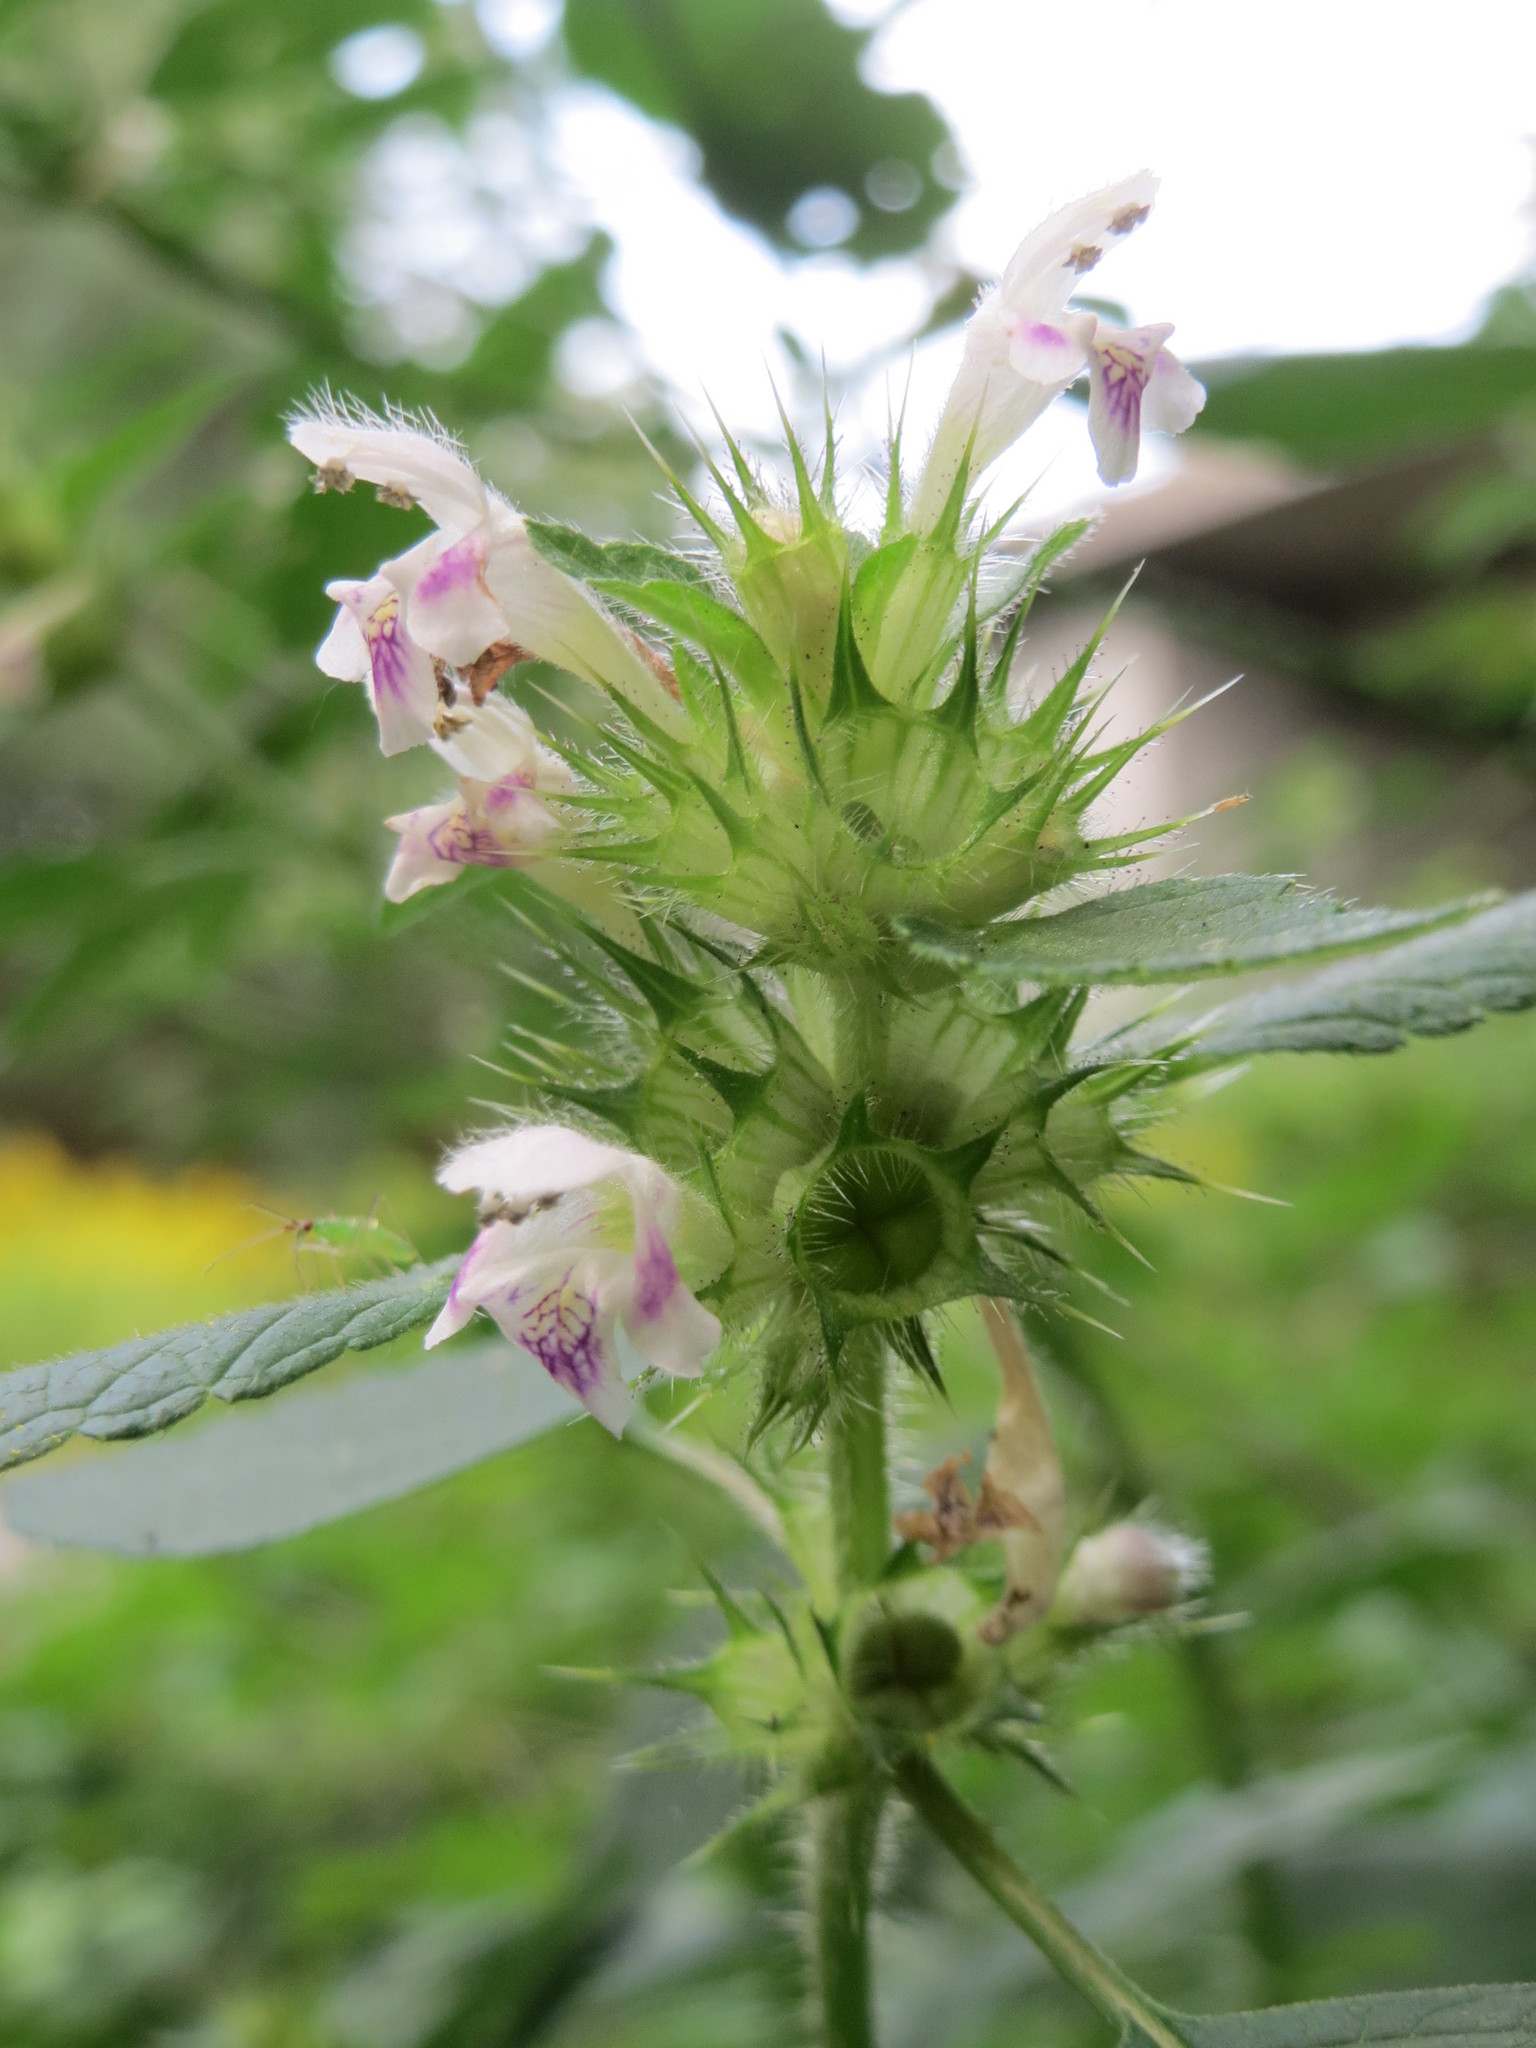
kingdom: Plantae
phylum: Tracheophyta
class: Magnoliopsida
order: Lamiales
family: Lamiaceae
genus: Galeopsis
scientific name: Galeopsis tetrahit
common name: Common hemp-nettle
